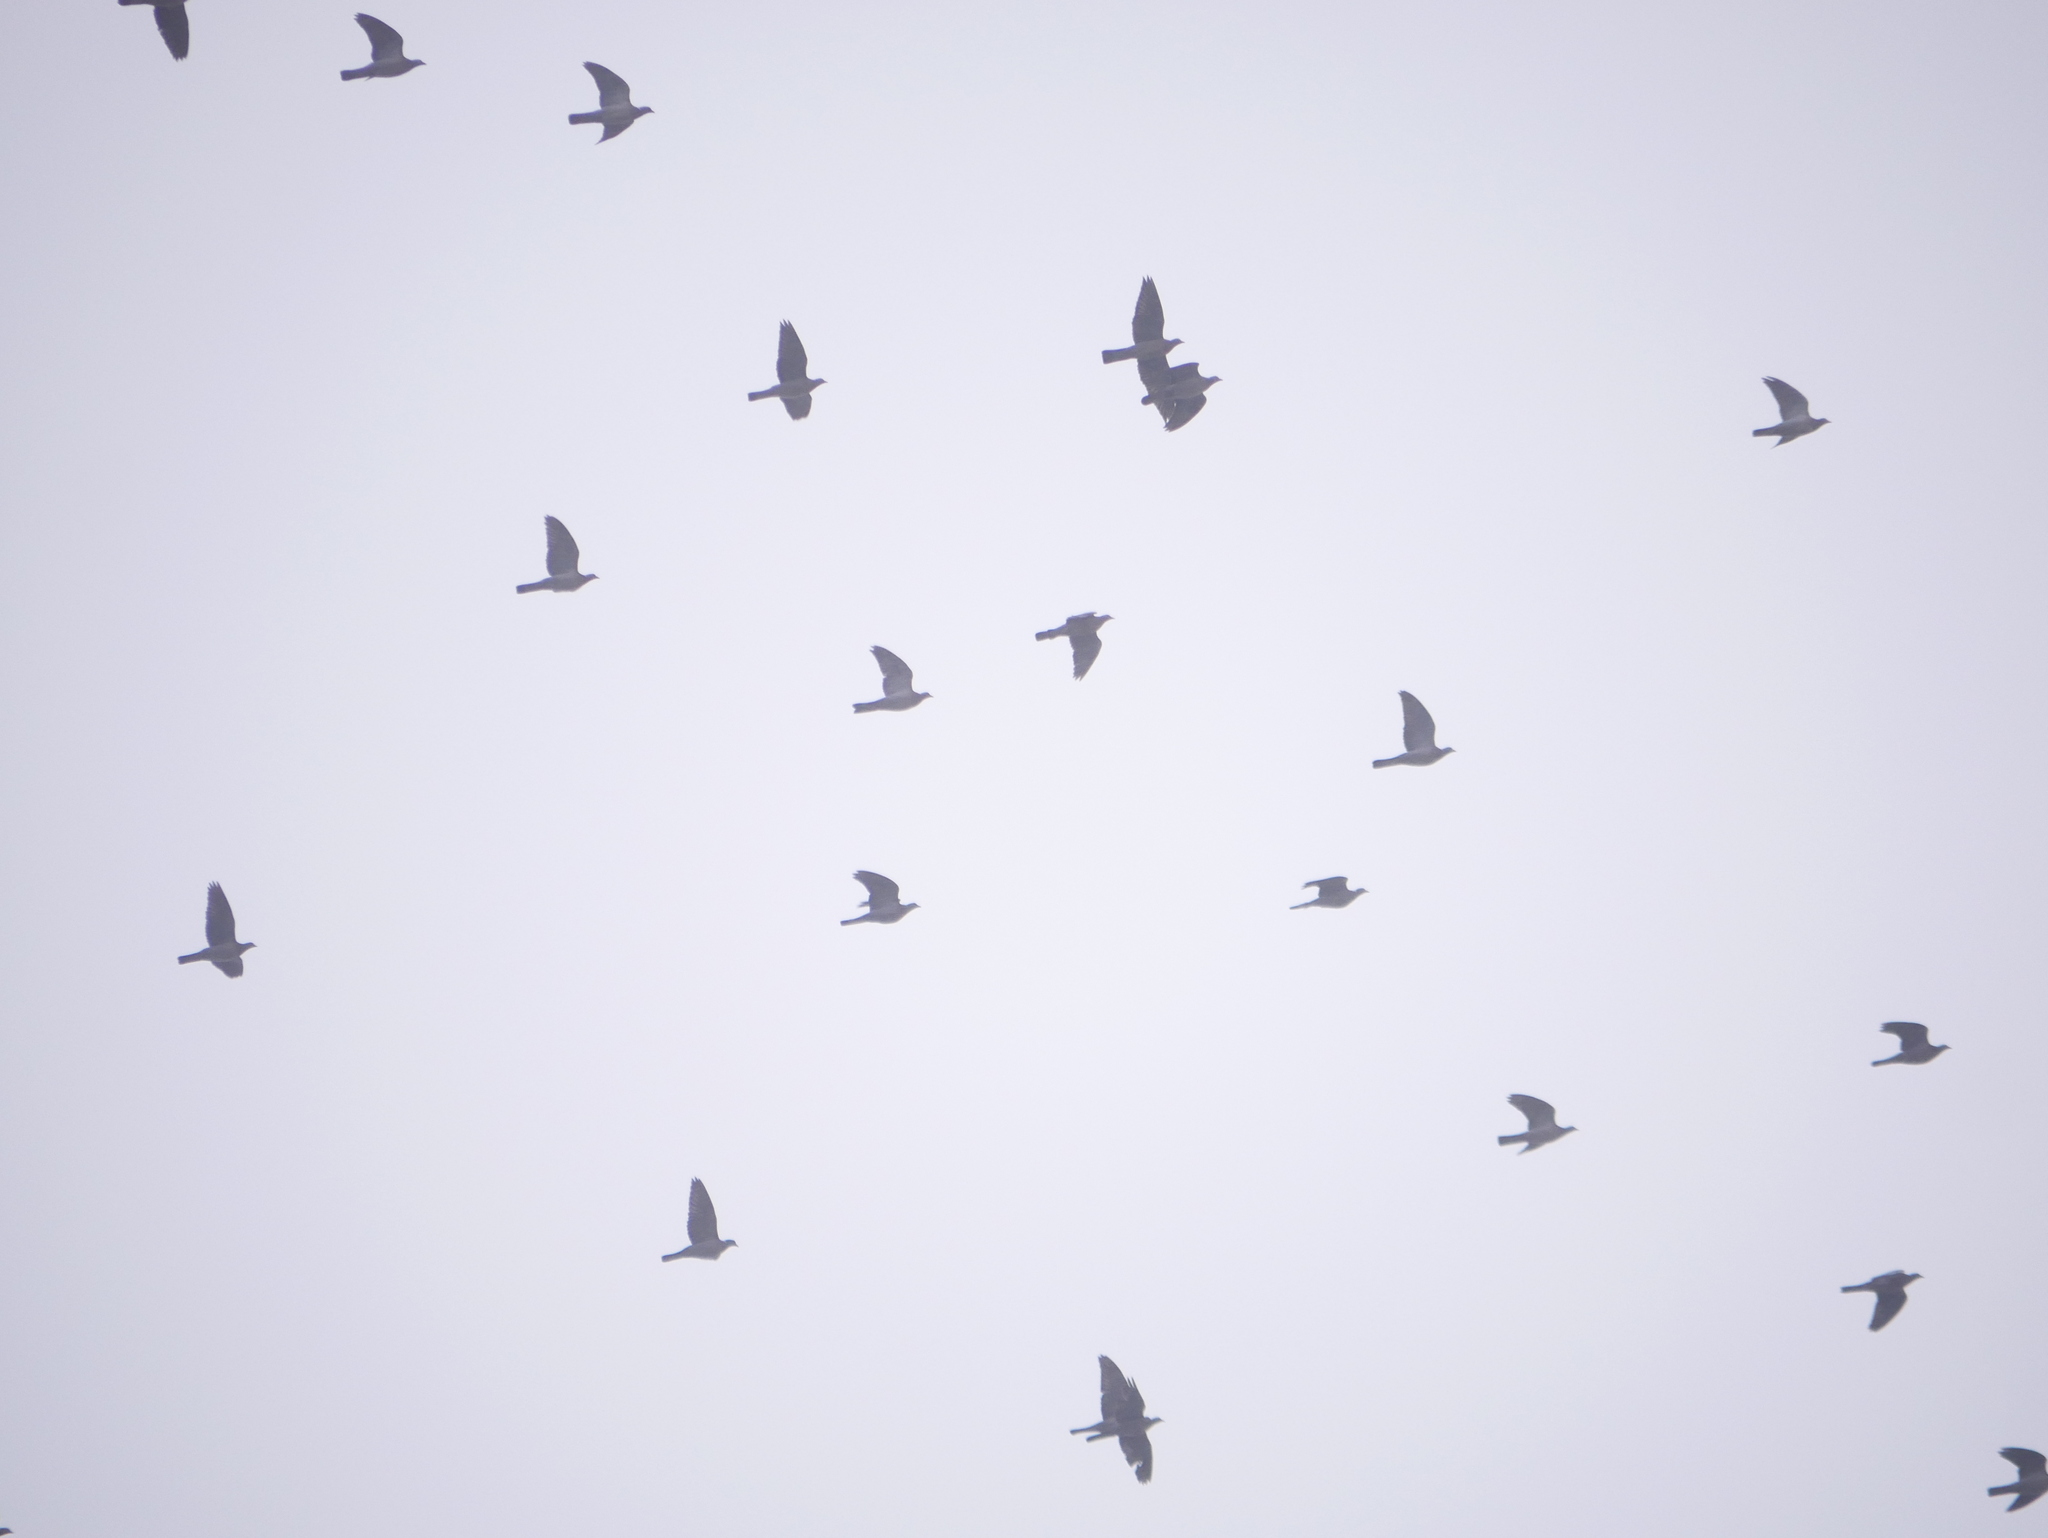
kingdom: Animalia
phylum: Chordata
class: Aves
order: Columbiformes
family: Columbidae
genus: Columba
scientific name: Columba palumbus
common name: Common wood pigeon
